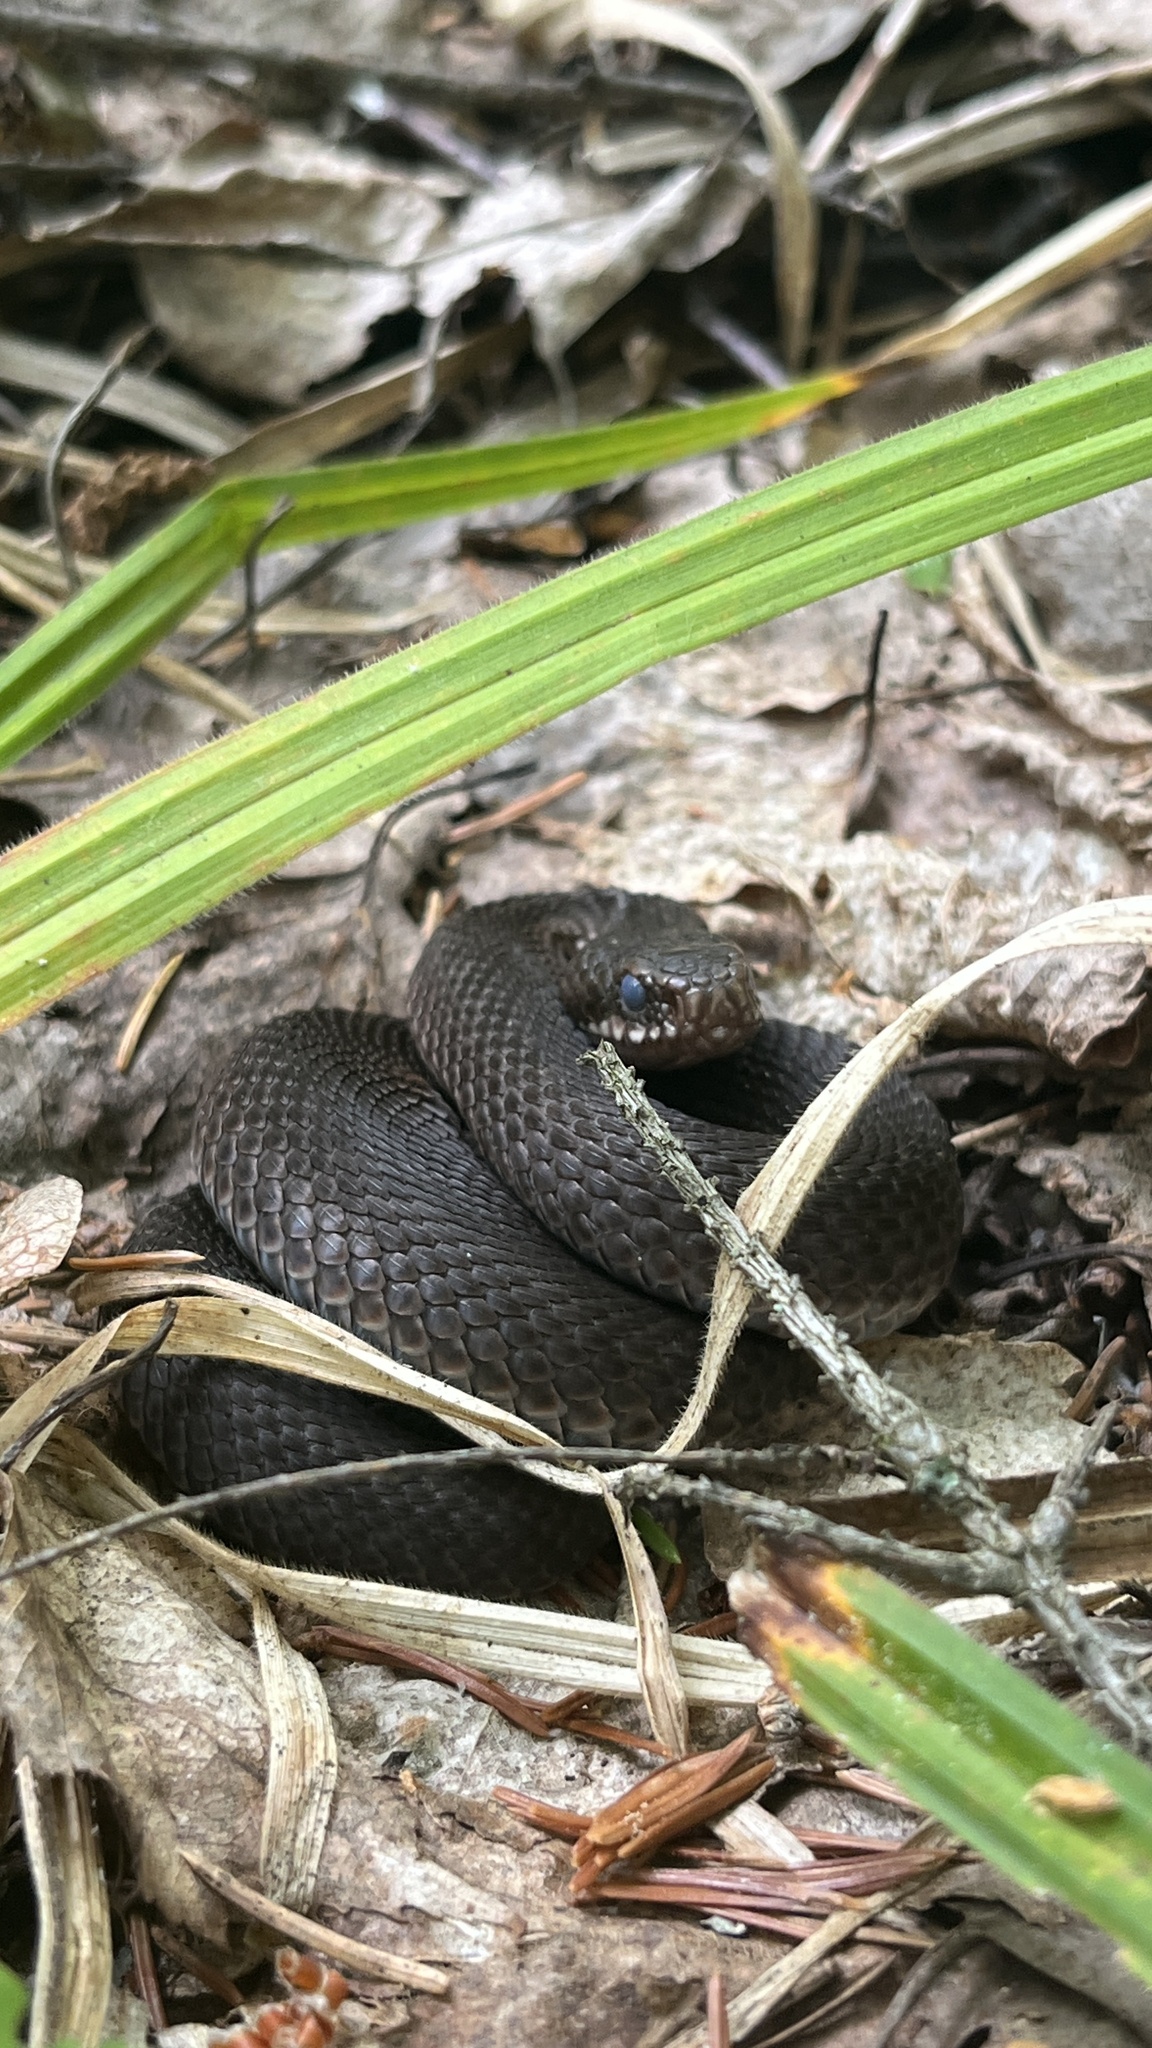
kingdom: Animalia
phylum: Chordata
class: Squamata
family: Viperidae
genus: Vipera
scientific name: Vipera berus
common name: Adder
